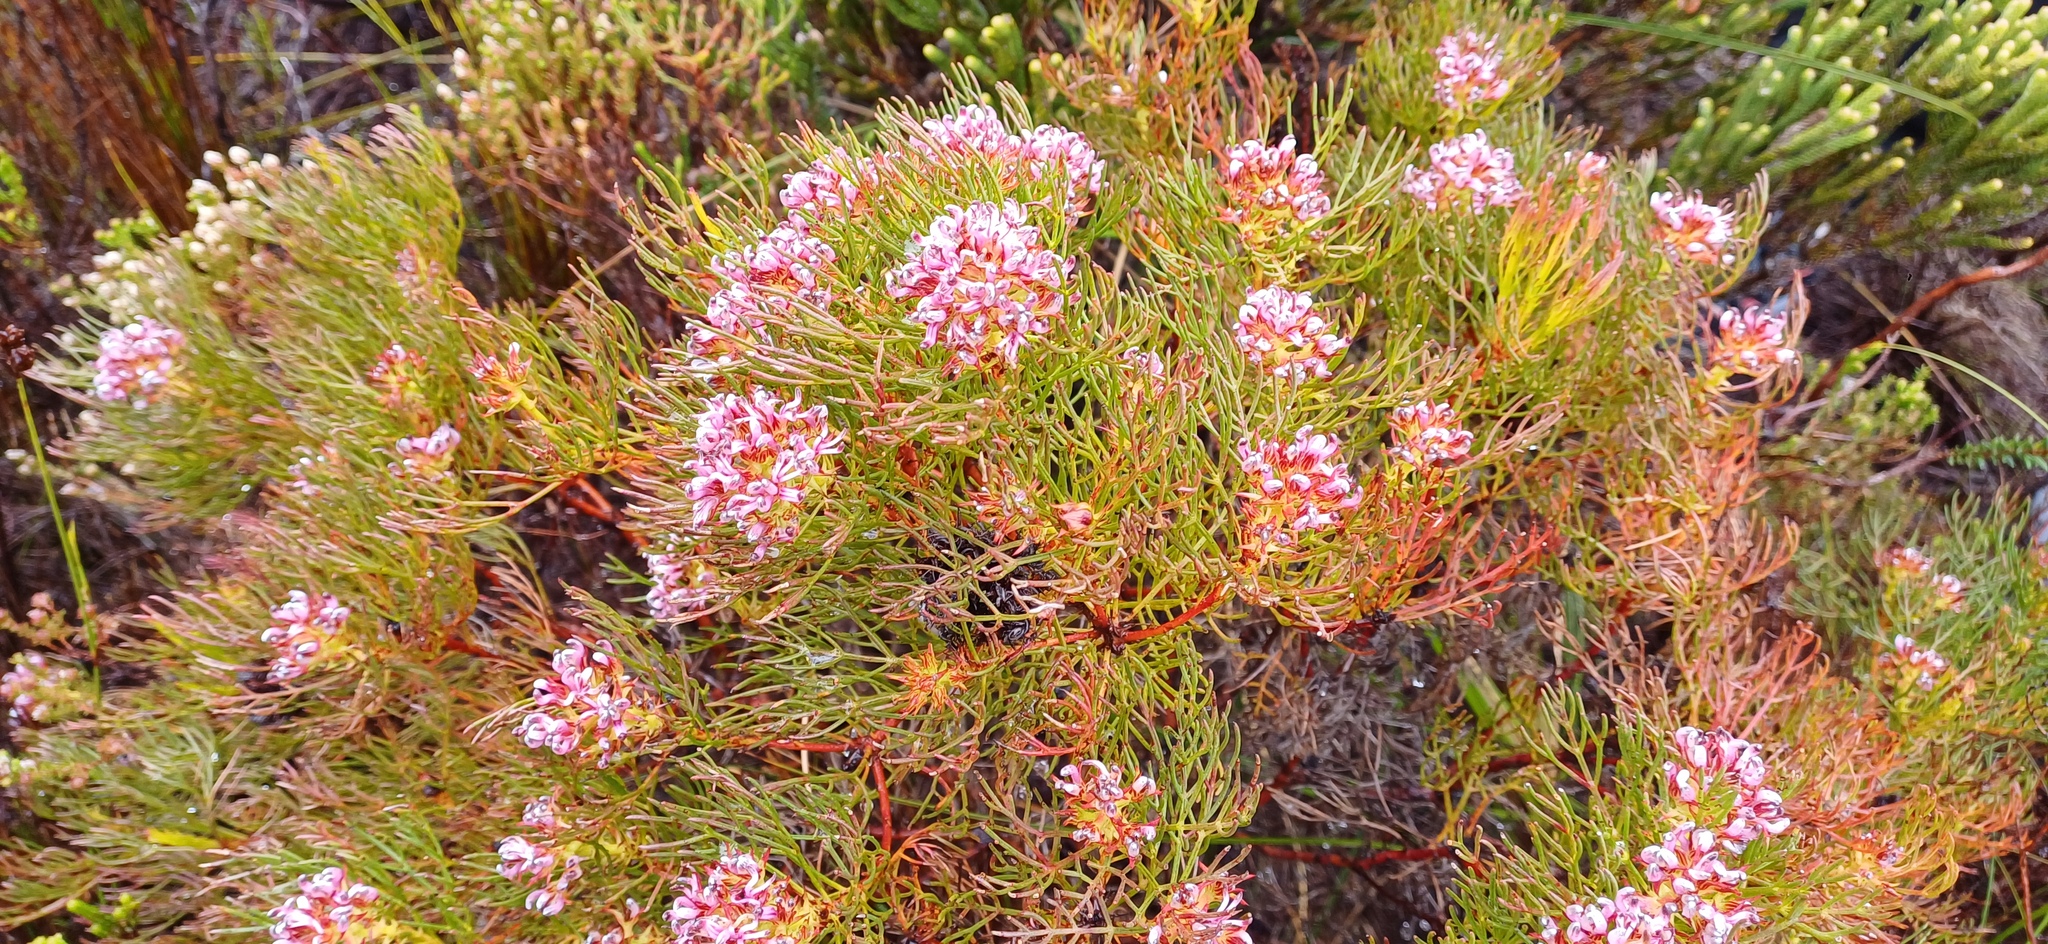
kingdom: Plantae
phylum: Tracheophyta
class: Magnoliopsida
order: Proteales
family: Proteaceae
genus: Serruria
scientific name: Serruria bolusii
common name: Agulhas spiderhead
